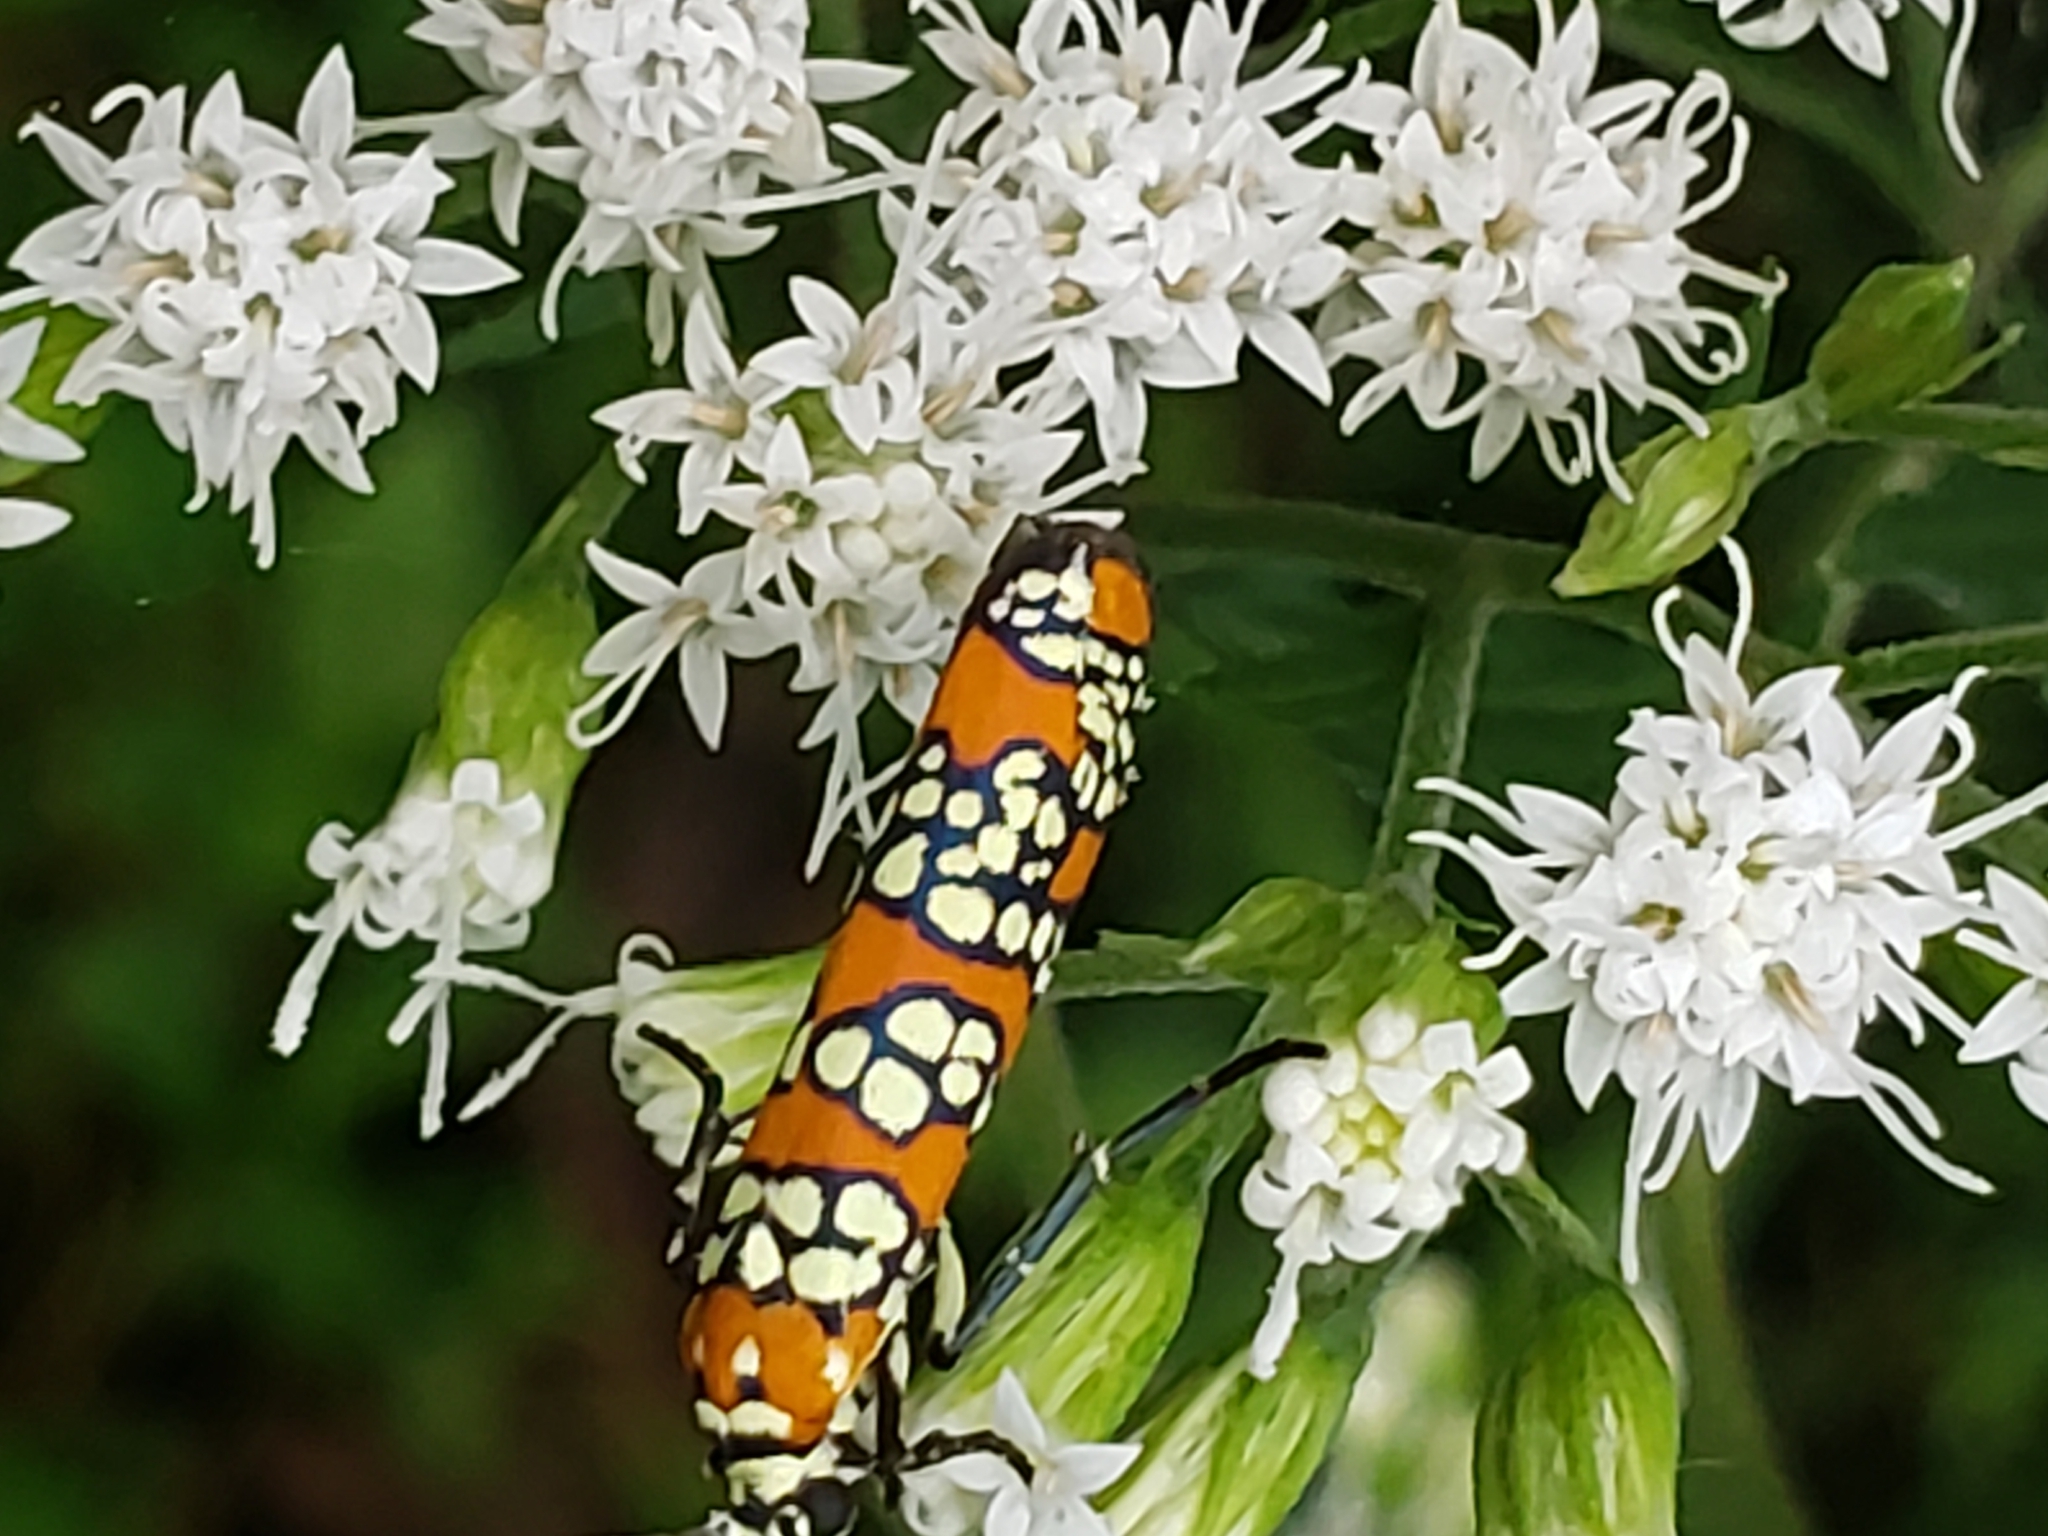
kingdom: Animalia
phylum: Arthropoda
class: Insecta
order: Lepidoptera
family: Attevidae
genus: Atteva
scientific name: Atteva punctella
